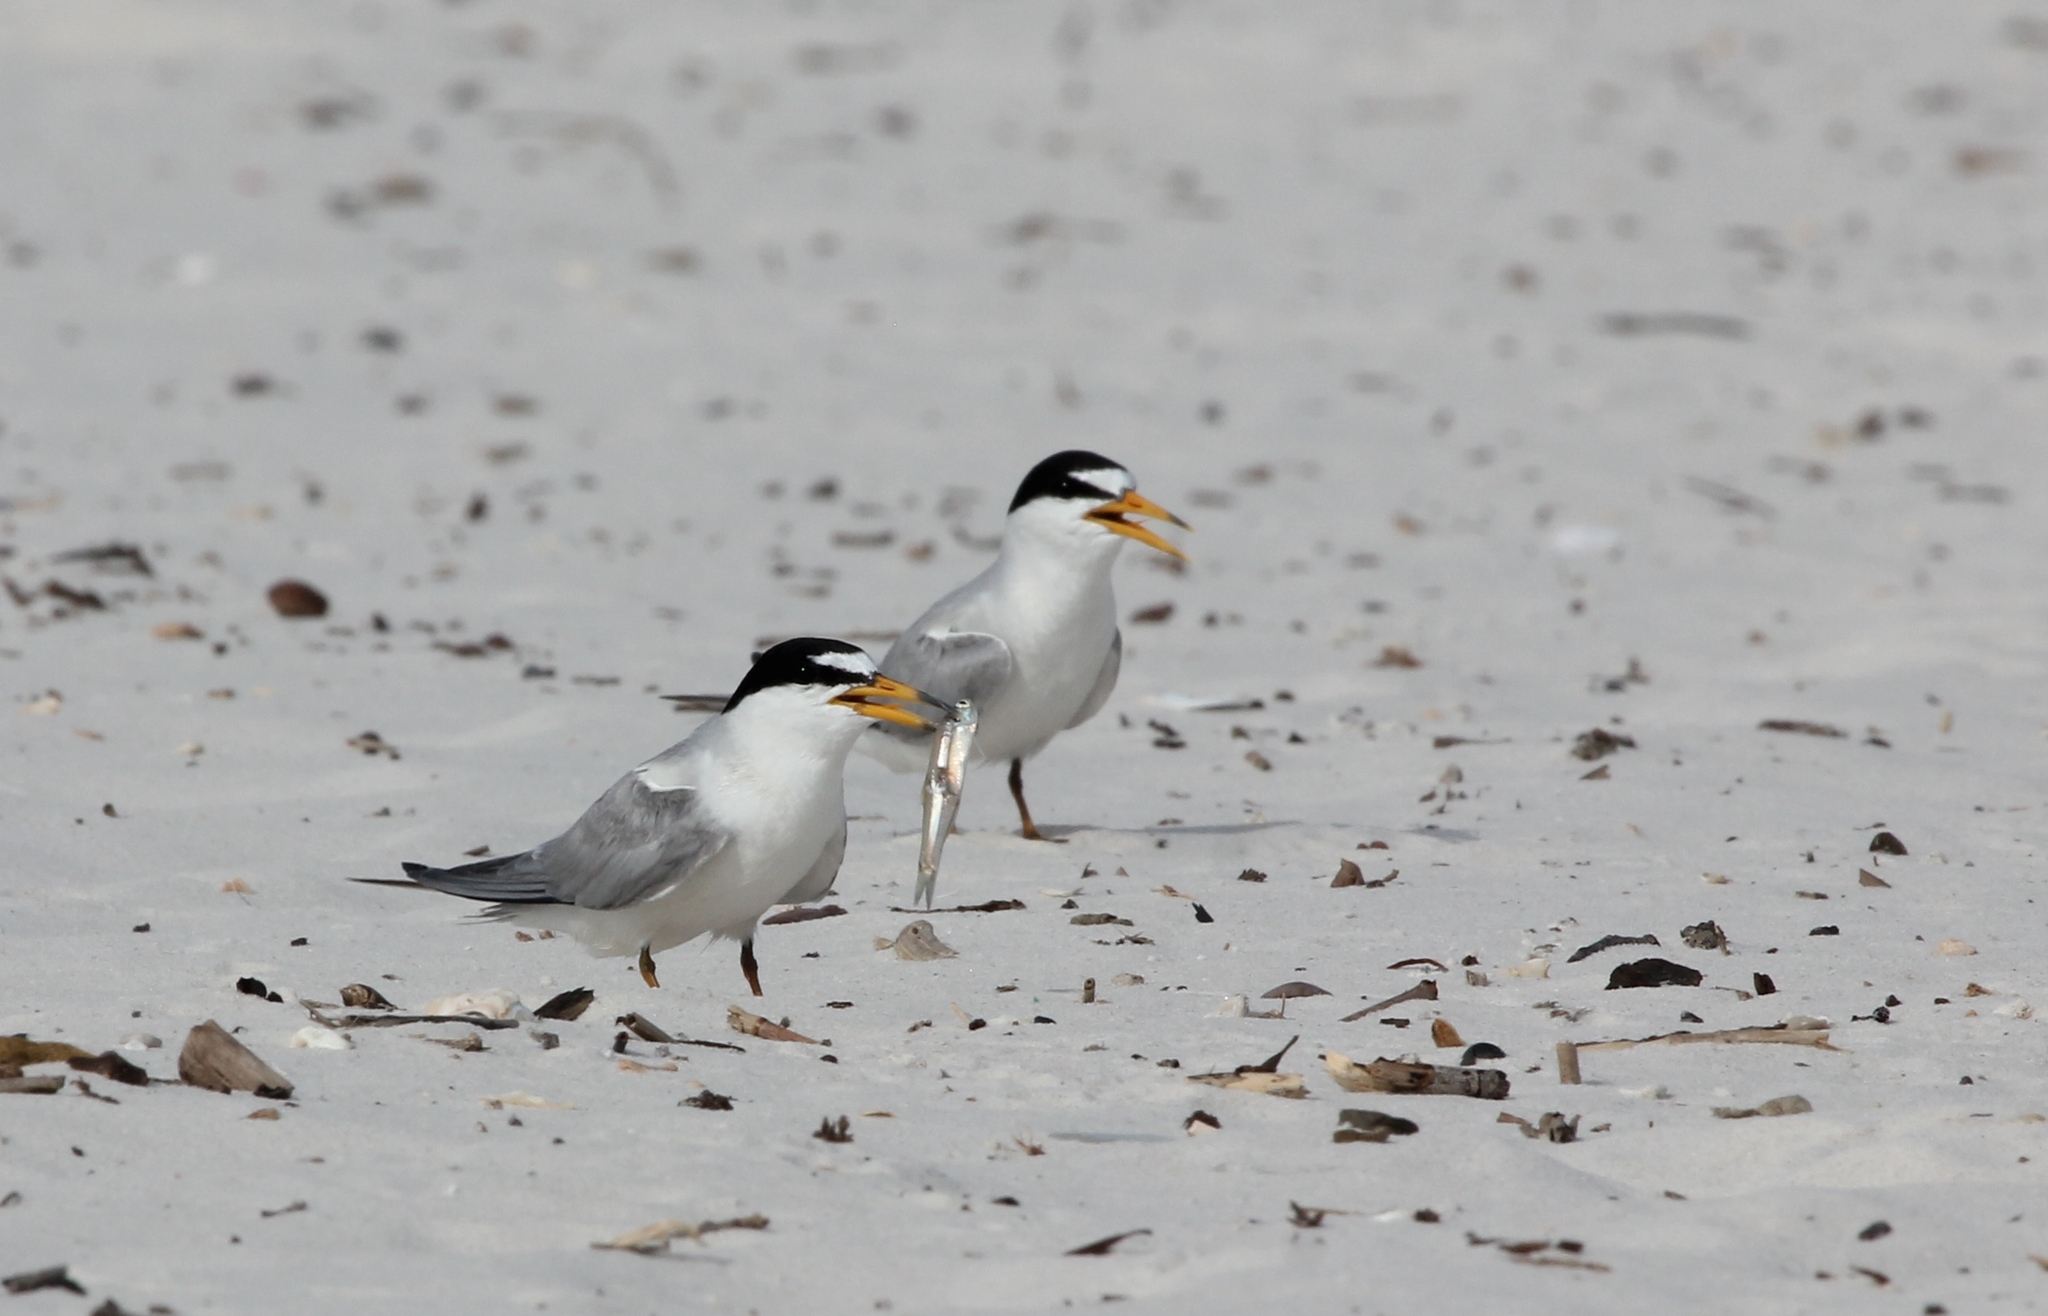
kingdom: Animalia
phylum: Chordata
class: Aves
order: Charadriiformes
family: Laridae
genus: Sternula
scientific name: Sternula antillarum
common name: Least tern
